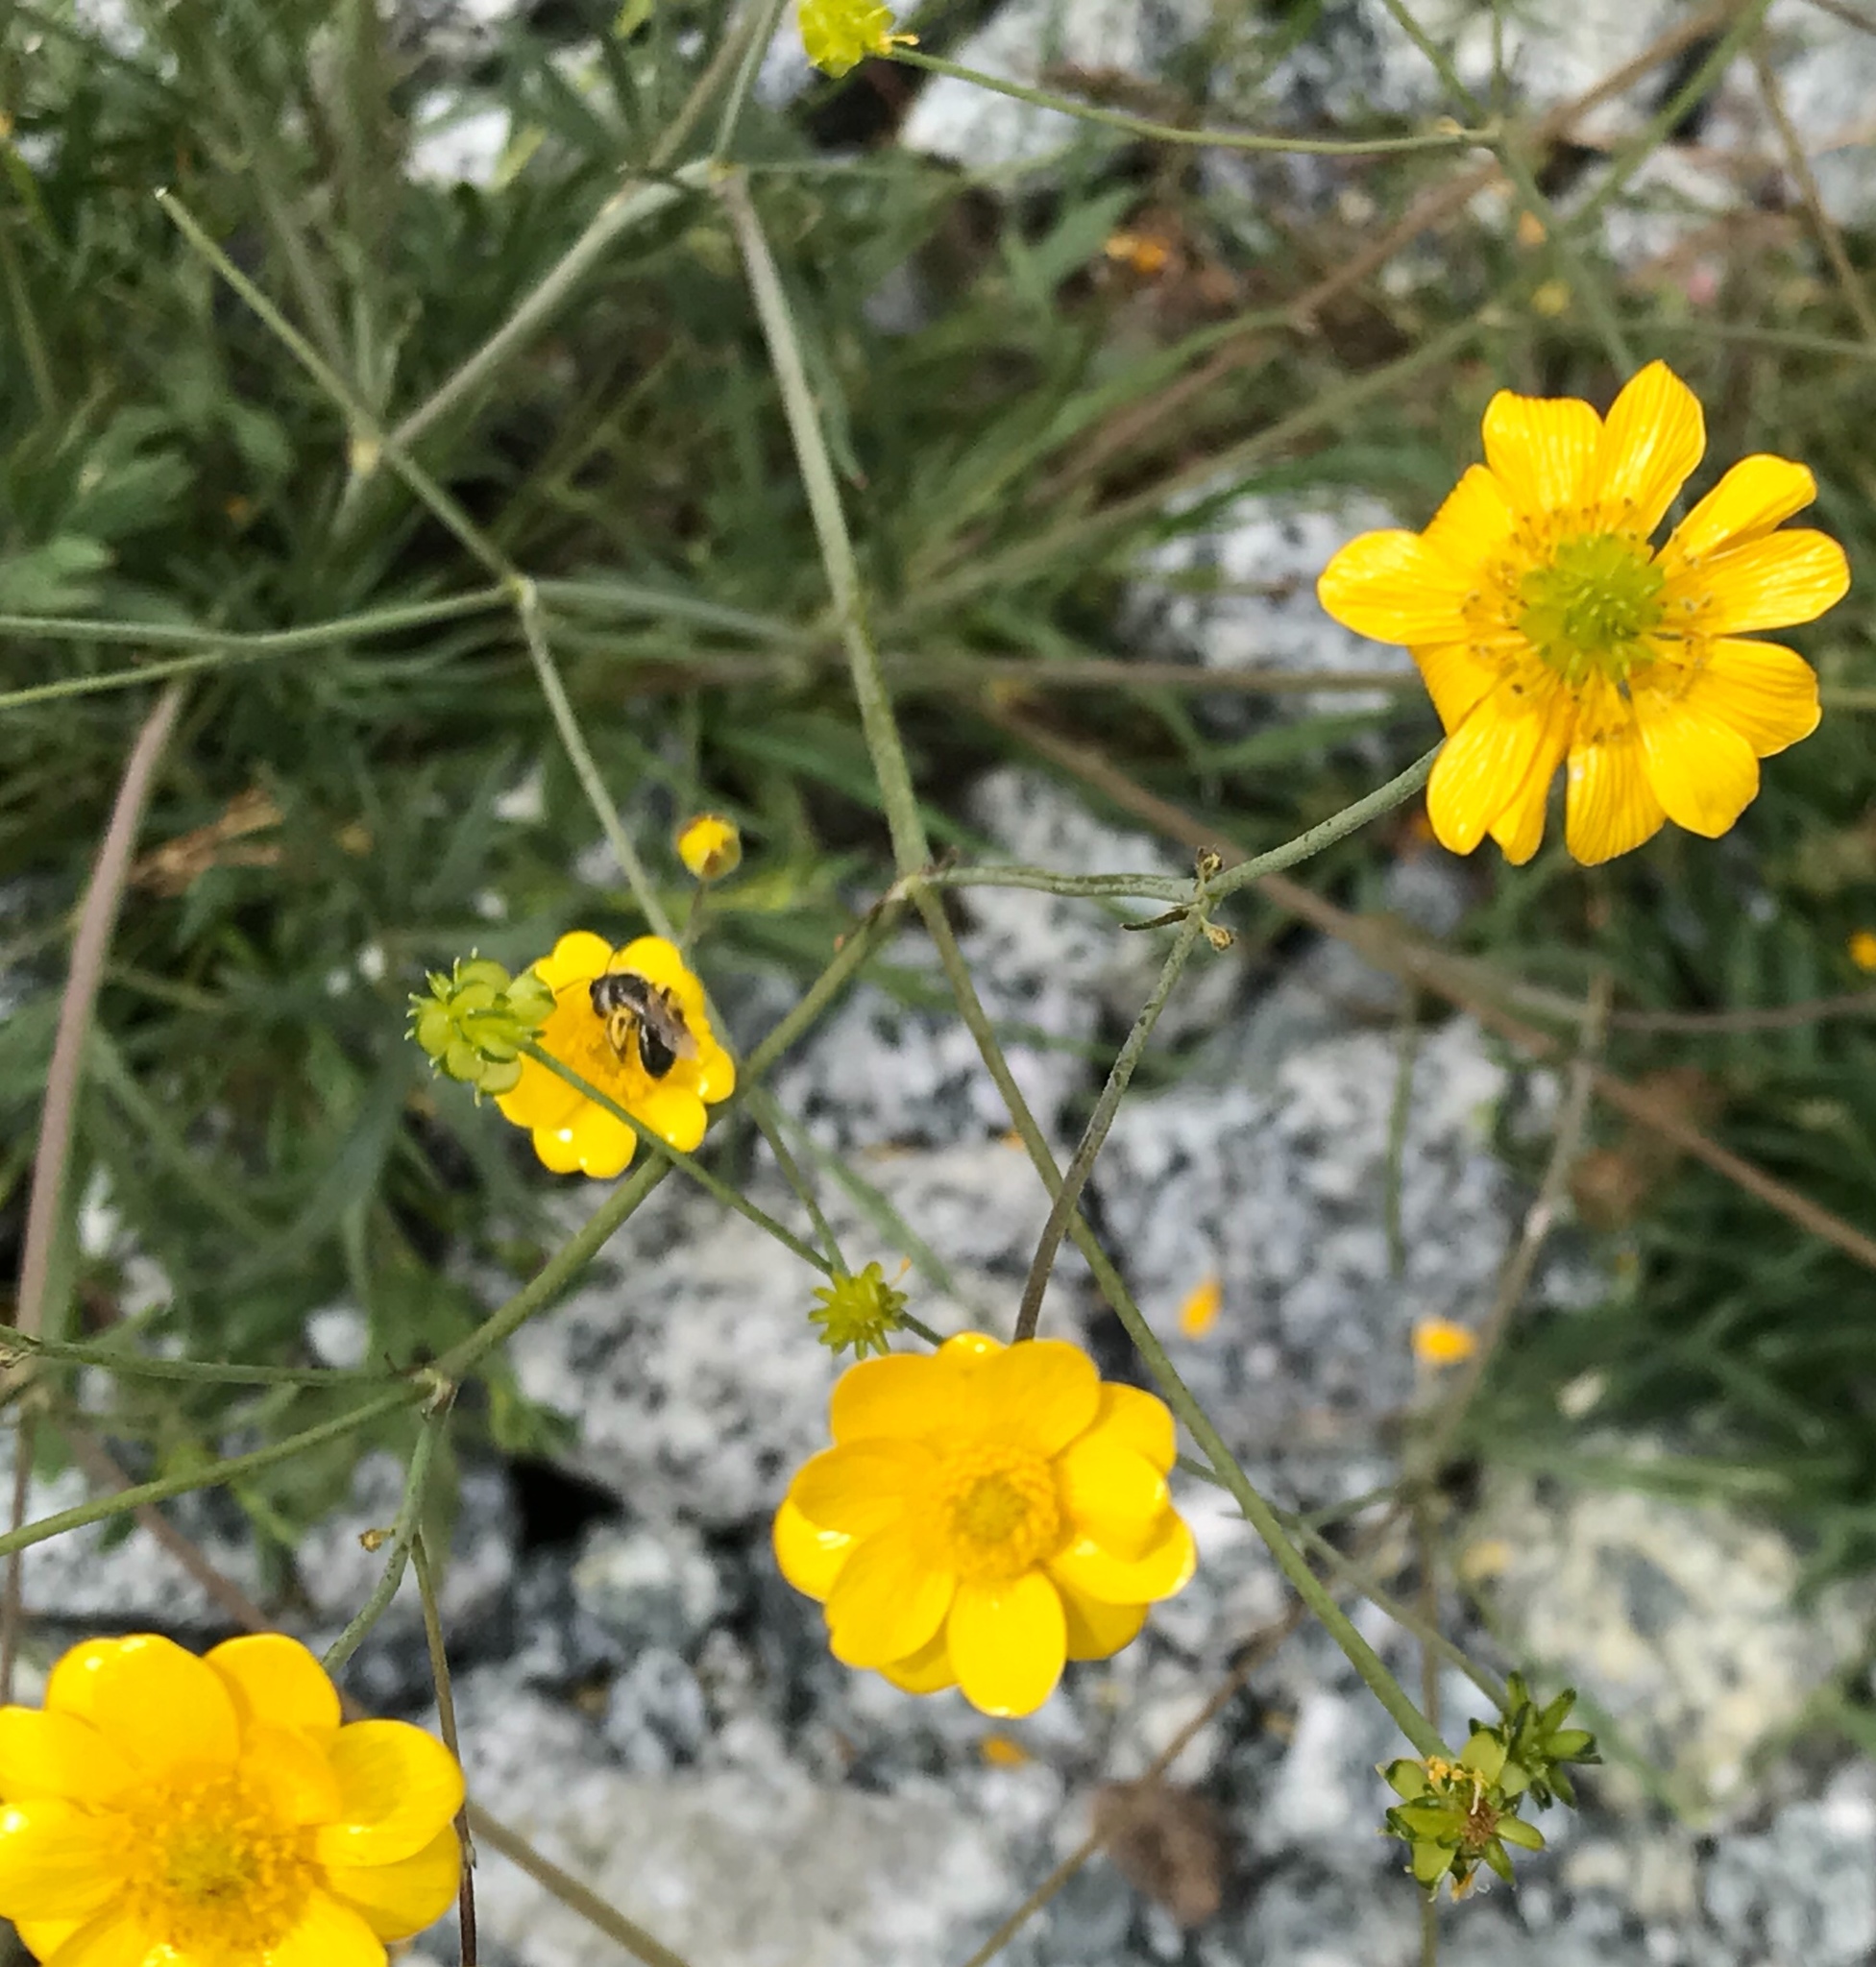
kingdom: Plantae
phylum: Tracheophyta
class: Magnoliopsida
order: Ranunculales
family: Ranunculaceae
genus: Ranunculus
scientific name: Ranunculus californicus
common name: California buttercup
